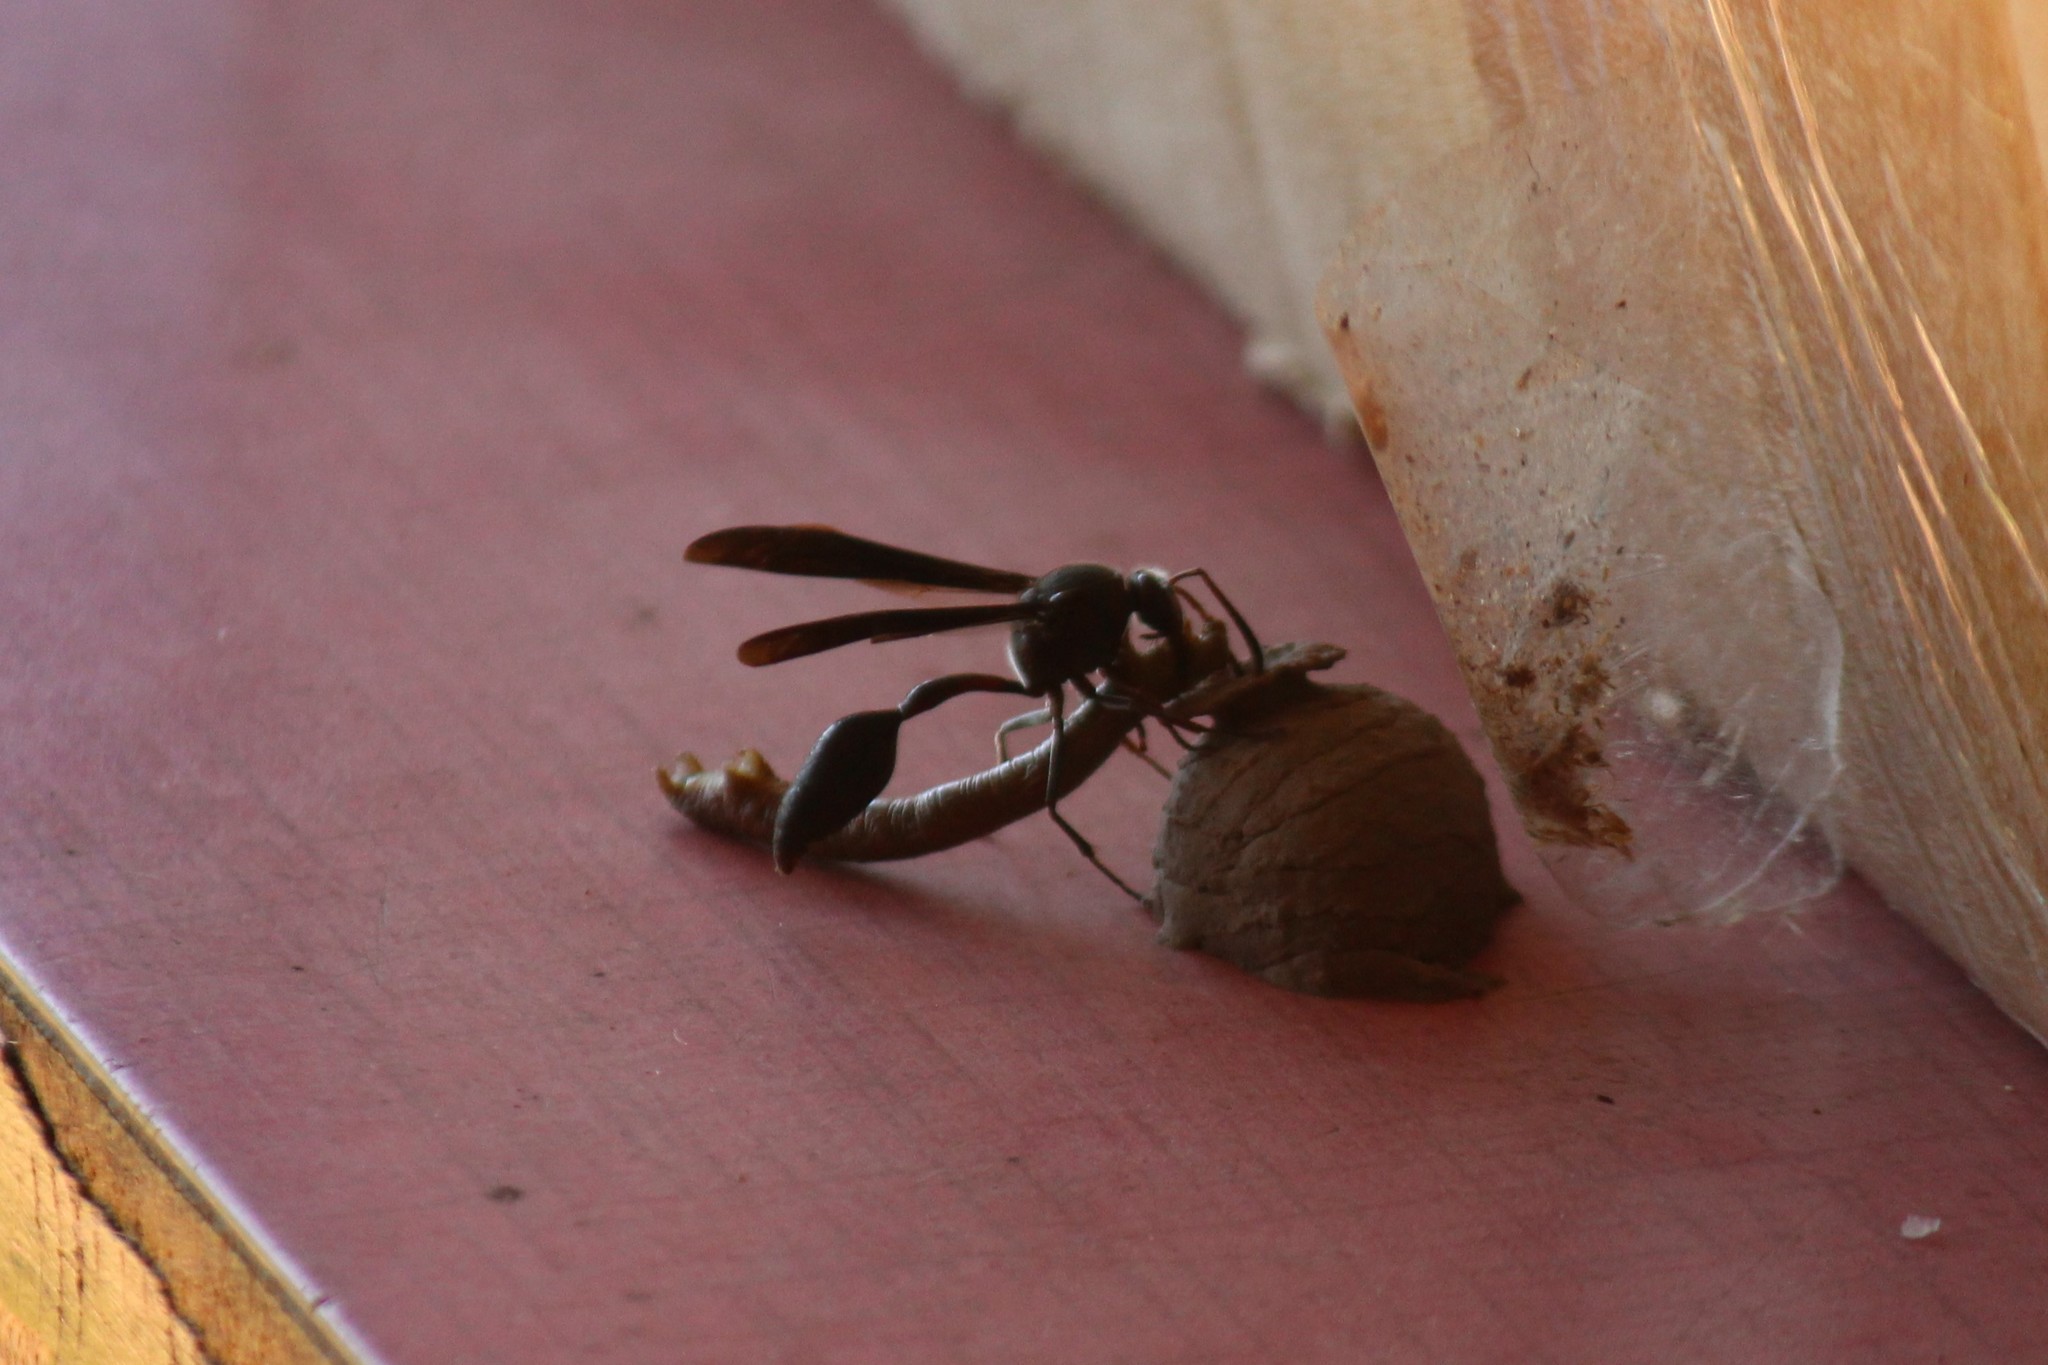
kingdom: Animalia
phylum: Arthropoda
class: Insecta
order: Hymenoptera
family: Eumenidae
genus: Delta
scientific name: Delta emarginatum
